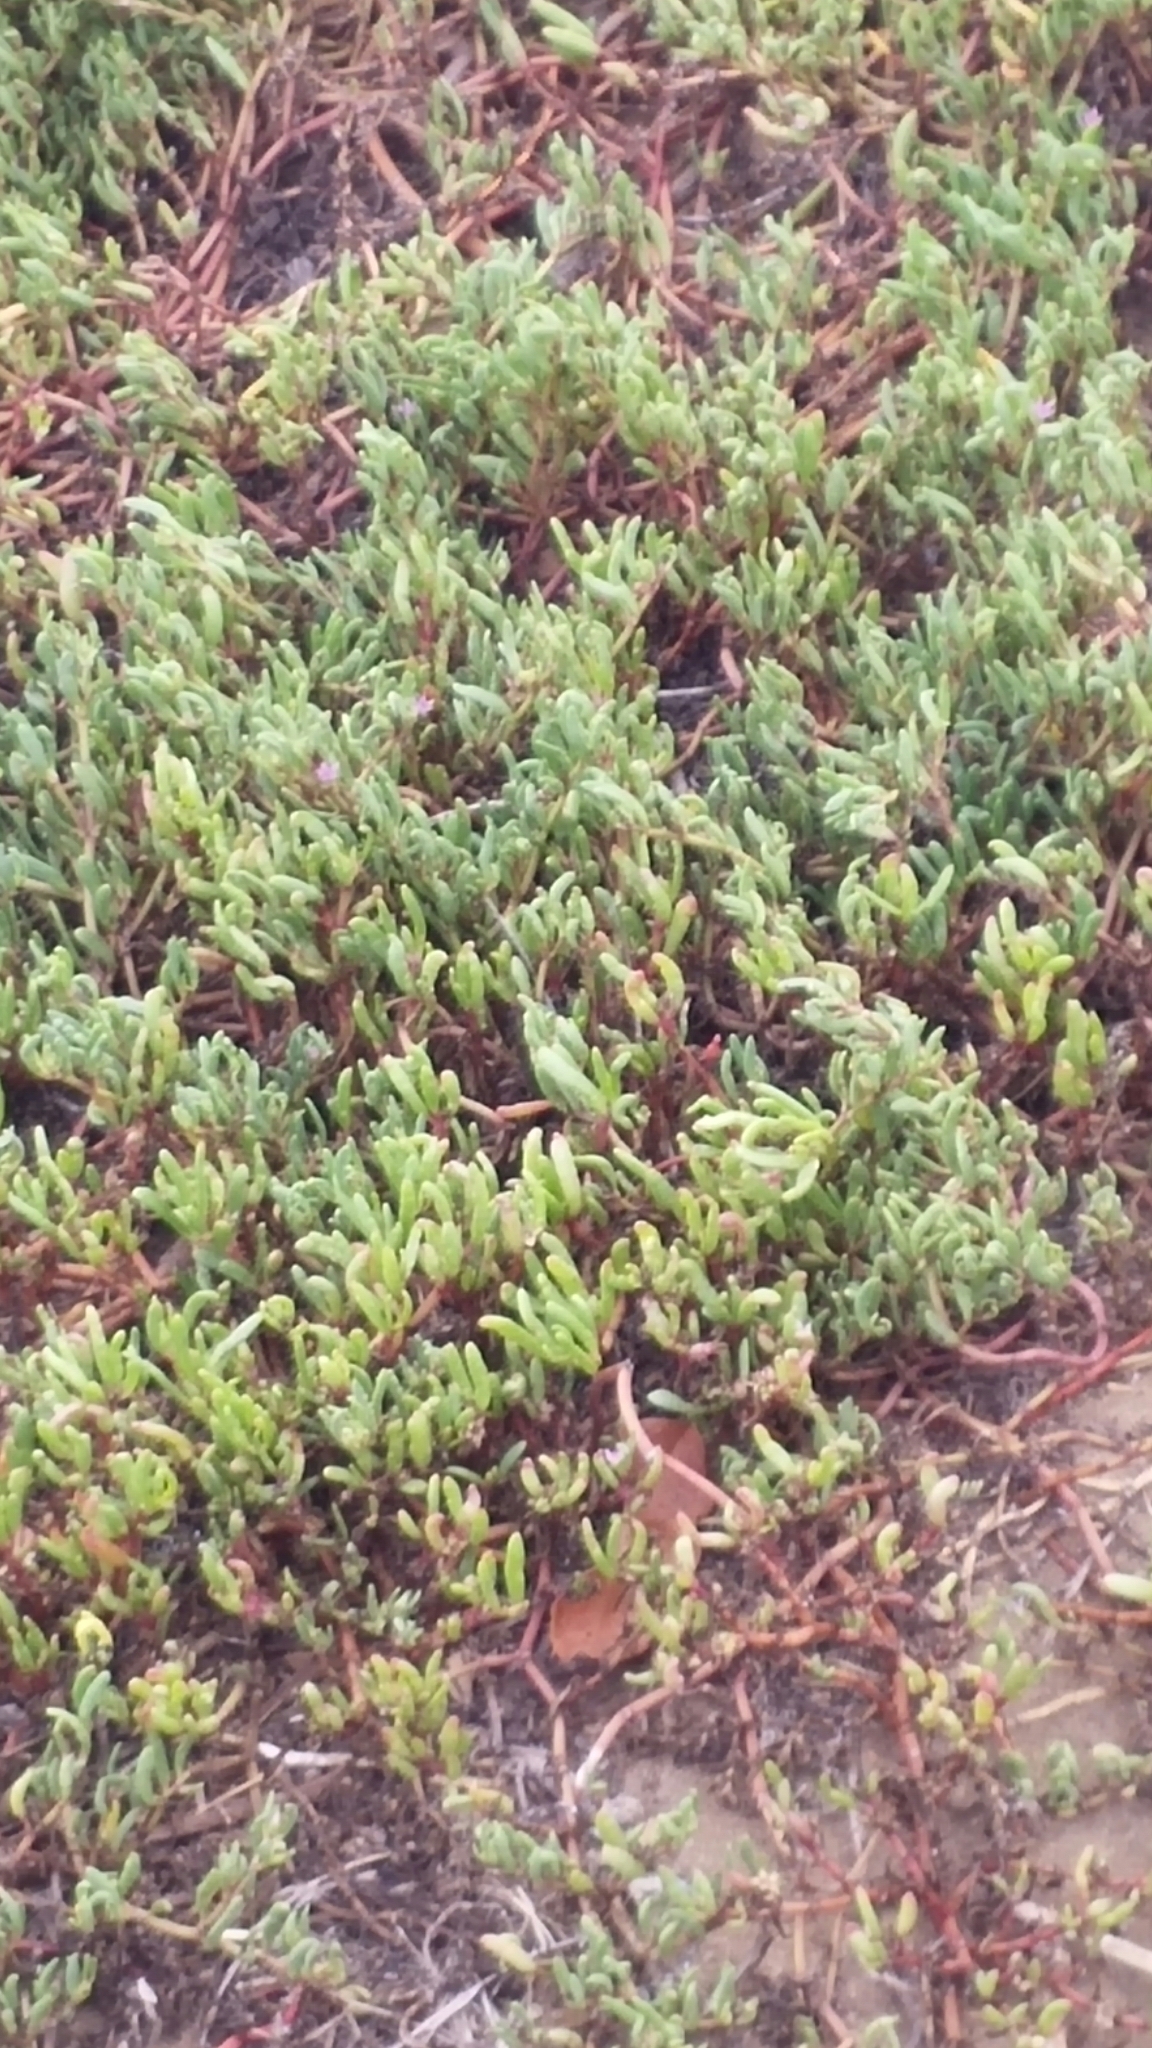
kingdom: Plantae
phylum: Tracheophyta
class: Magnoliopsida
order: Caryophyllales
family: Aizoaceae
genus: Sesuvium
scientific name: Sesuvium portulacastrum
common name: Sea-purslane
